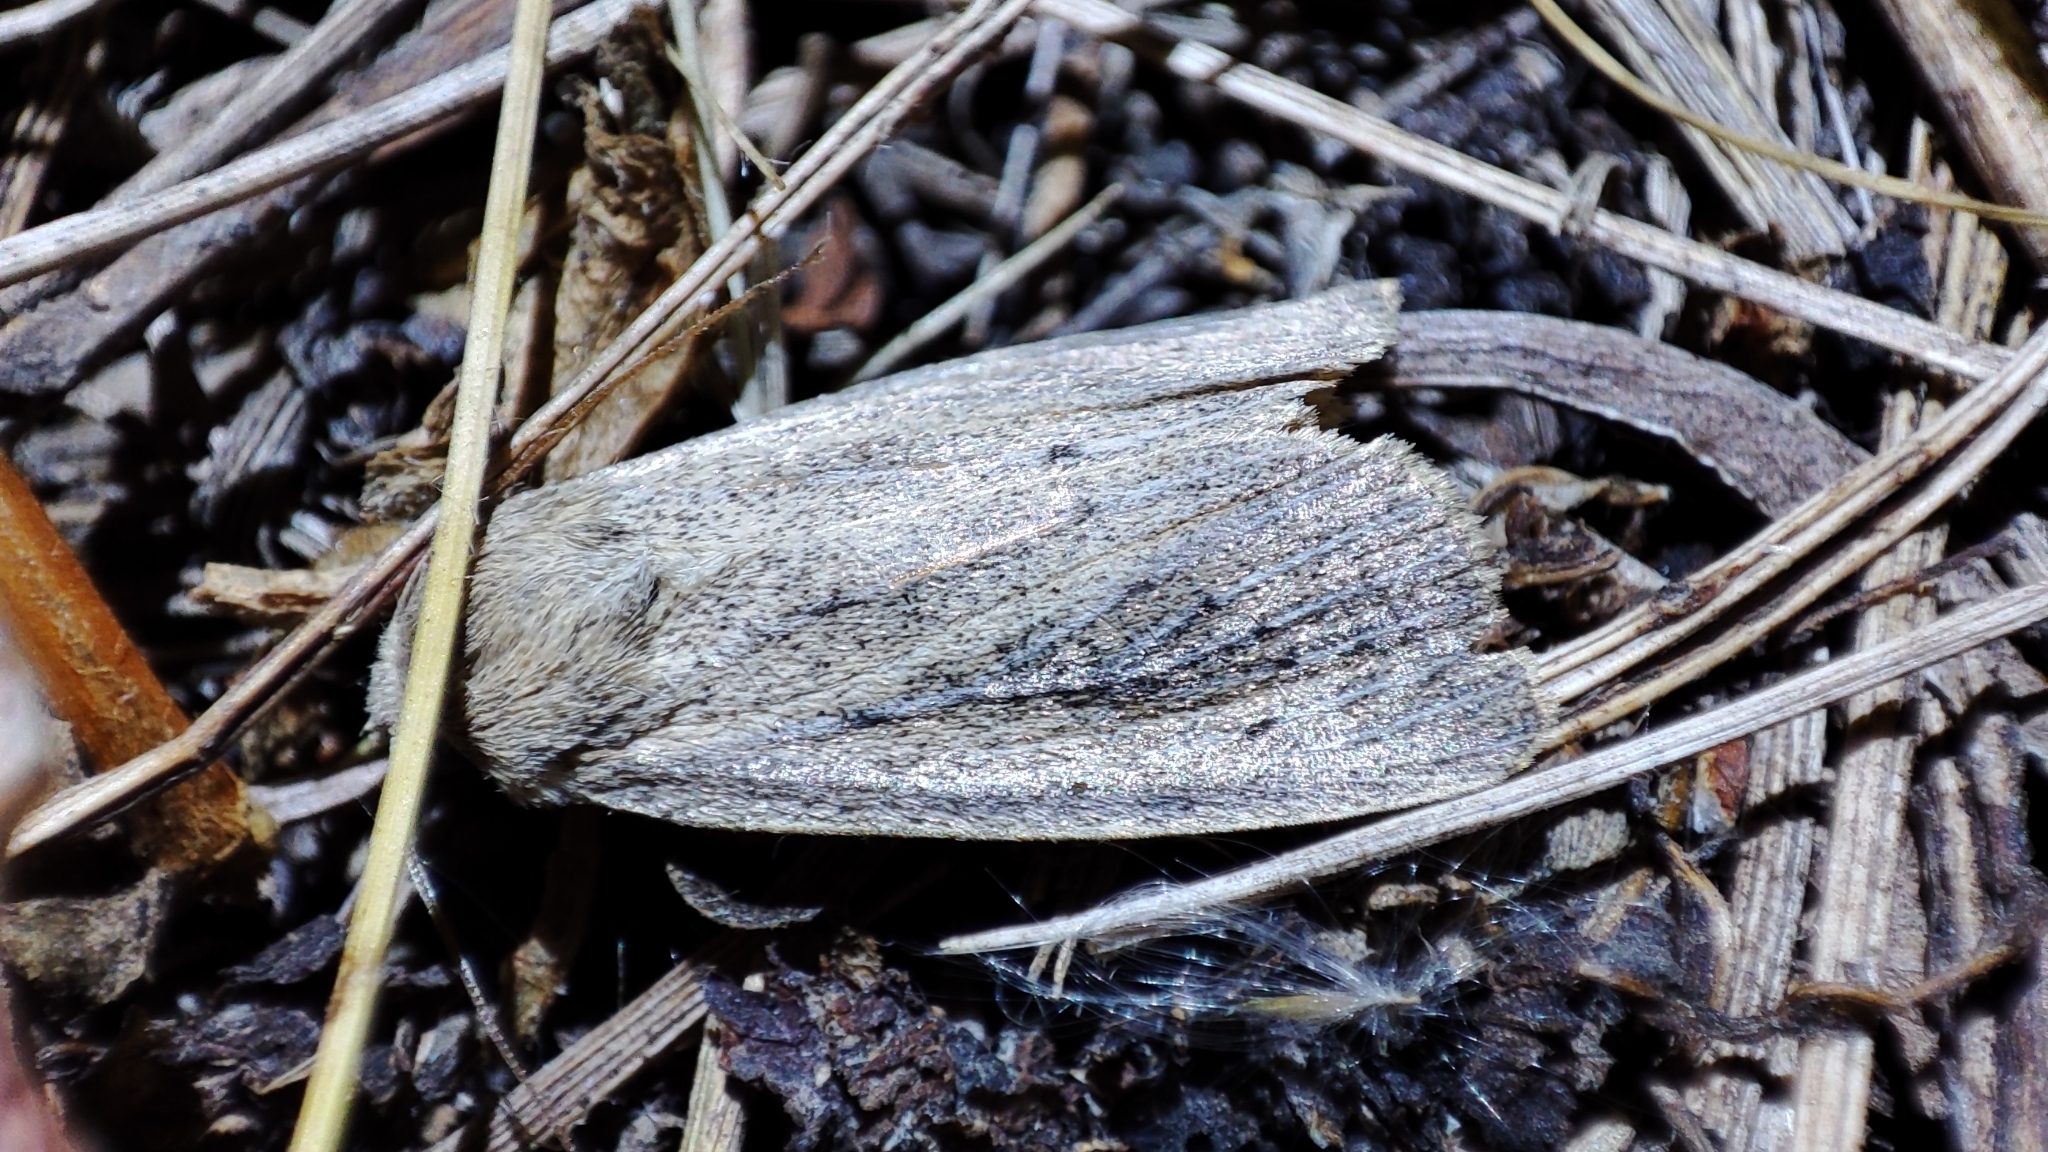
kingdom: Animalia
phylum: Arthropoda
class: Insecta
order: Lepidoptera
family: Noctuidae
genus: Protarchanara
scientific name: Protarchanara brevilinea
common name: Fenn's wainscot
